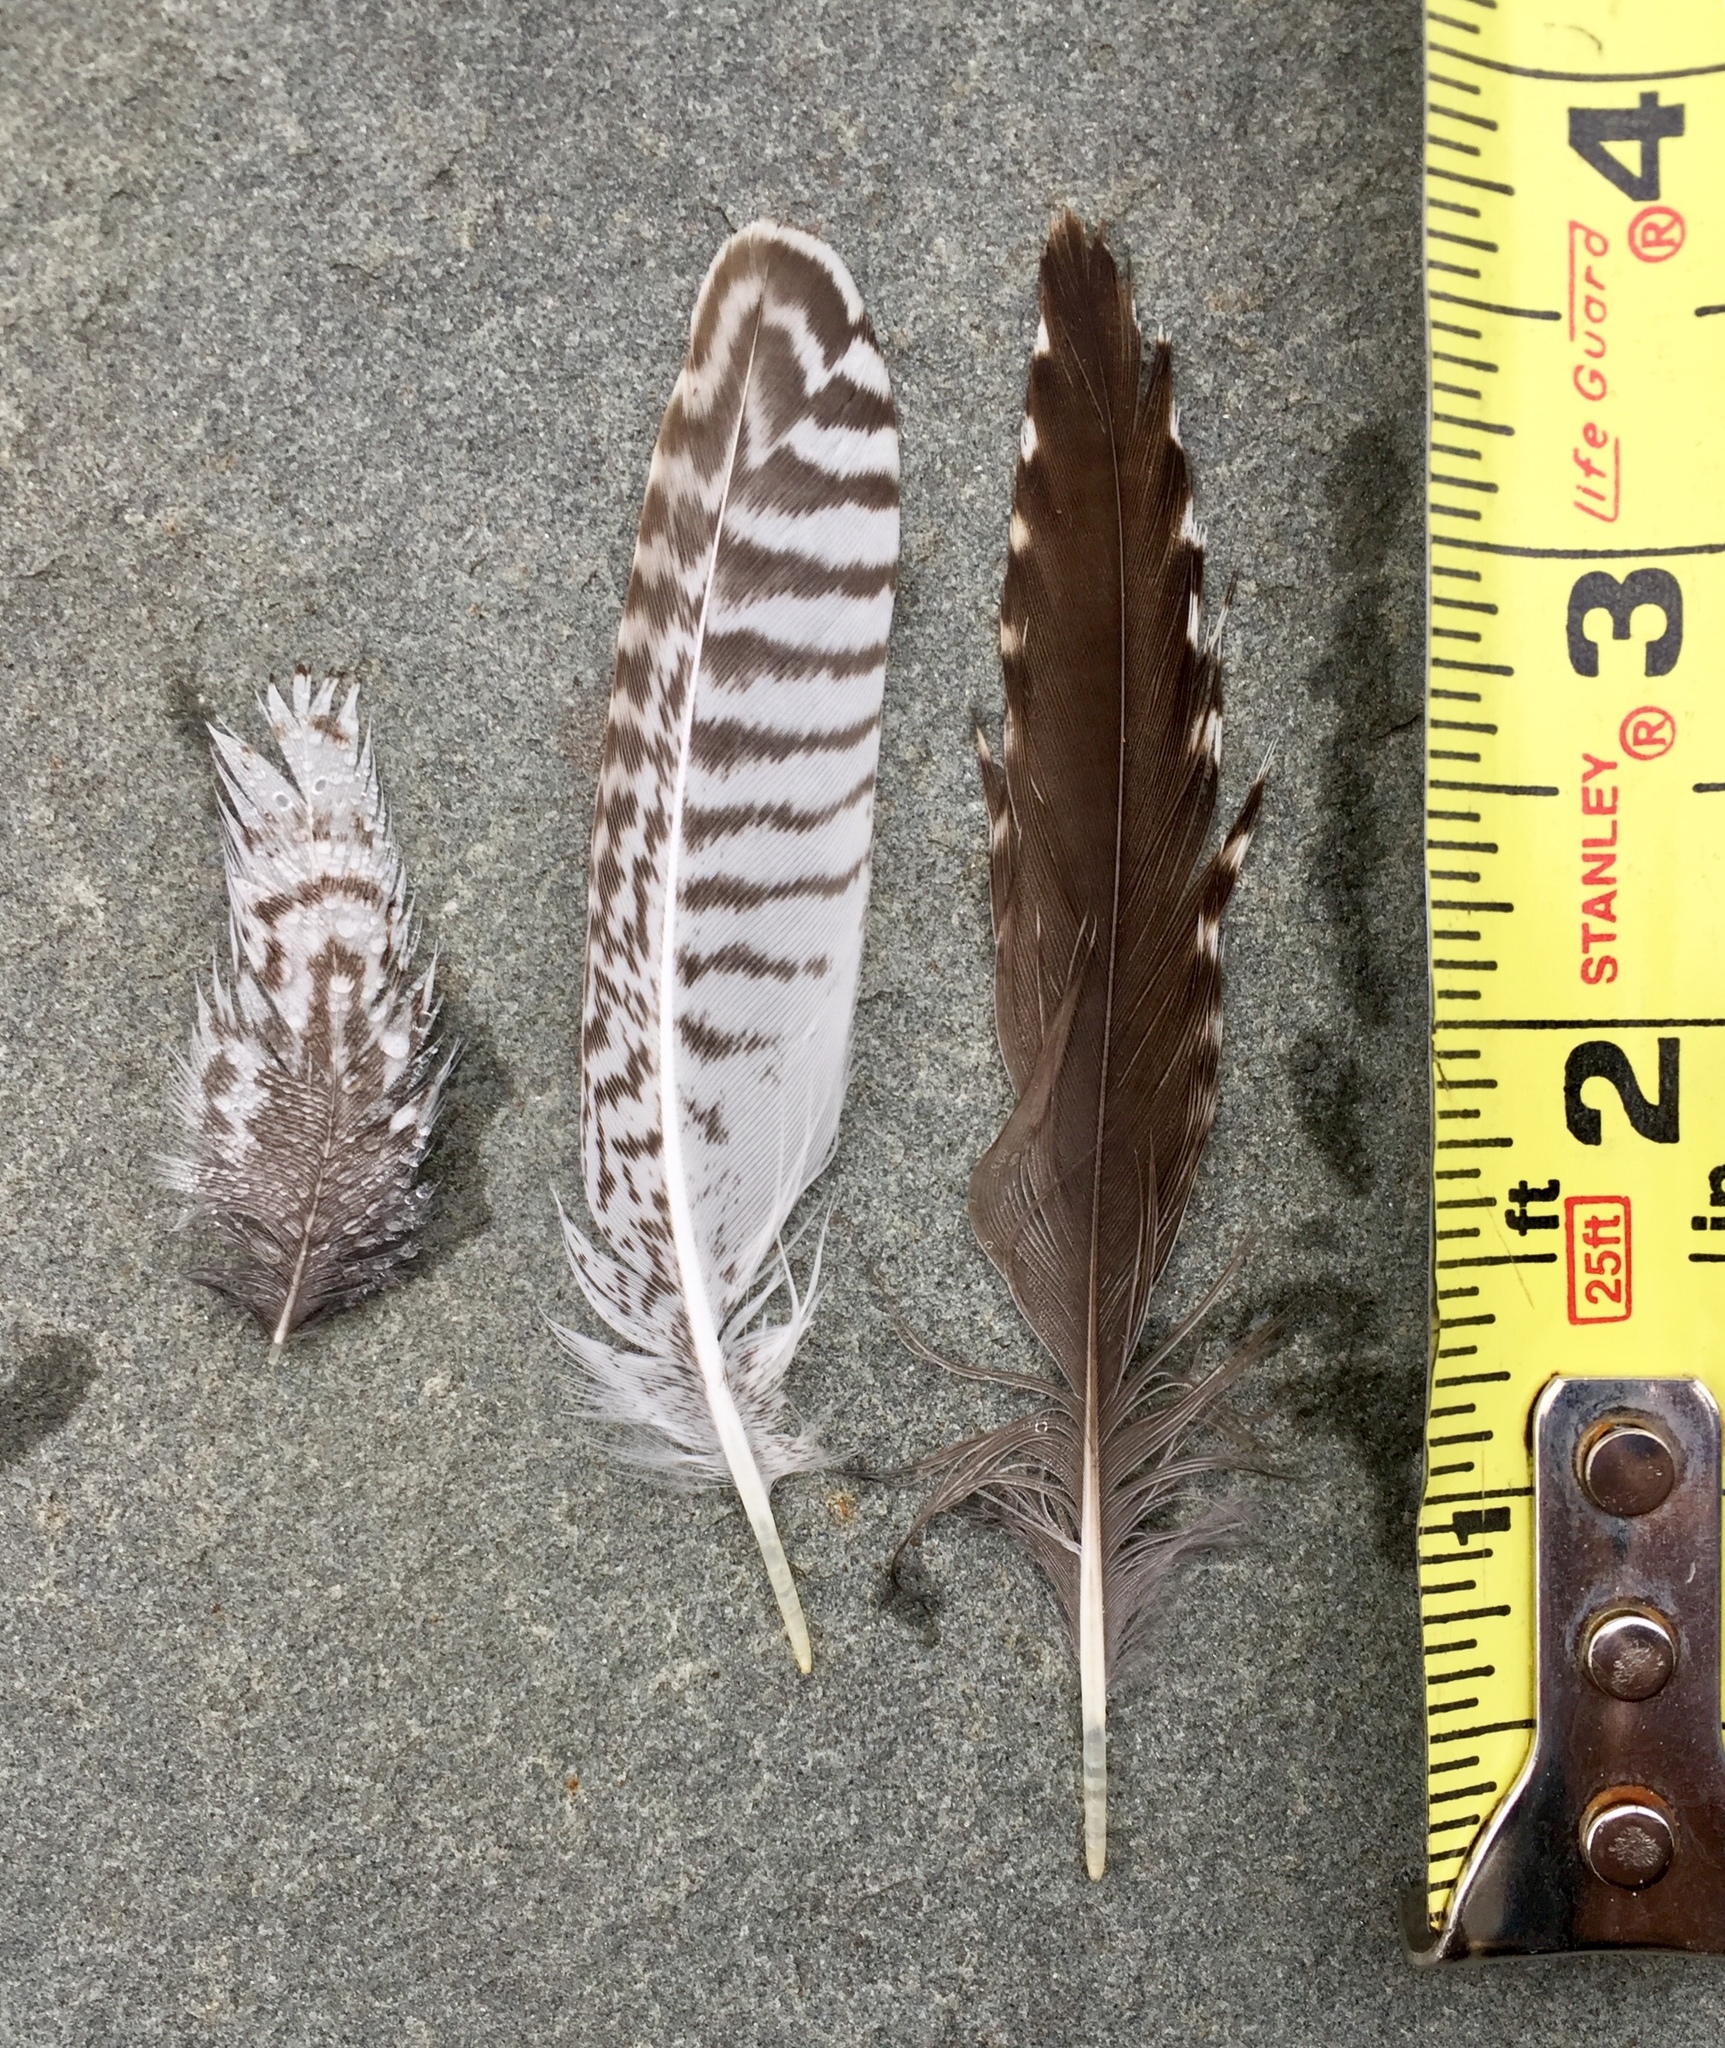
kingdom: Animalia
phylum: Chordata
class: Aves
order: Charadriiformes
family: Scolopacidae
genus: Tringa
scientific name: Tringa melanoleuca
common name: Greater yellowlegs
